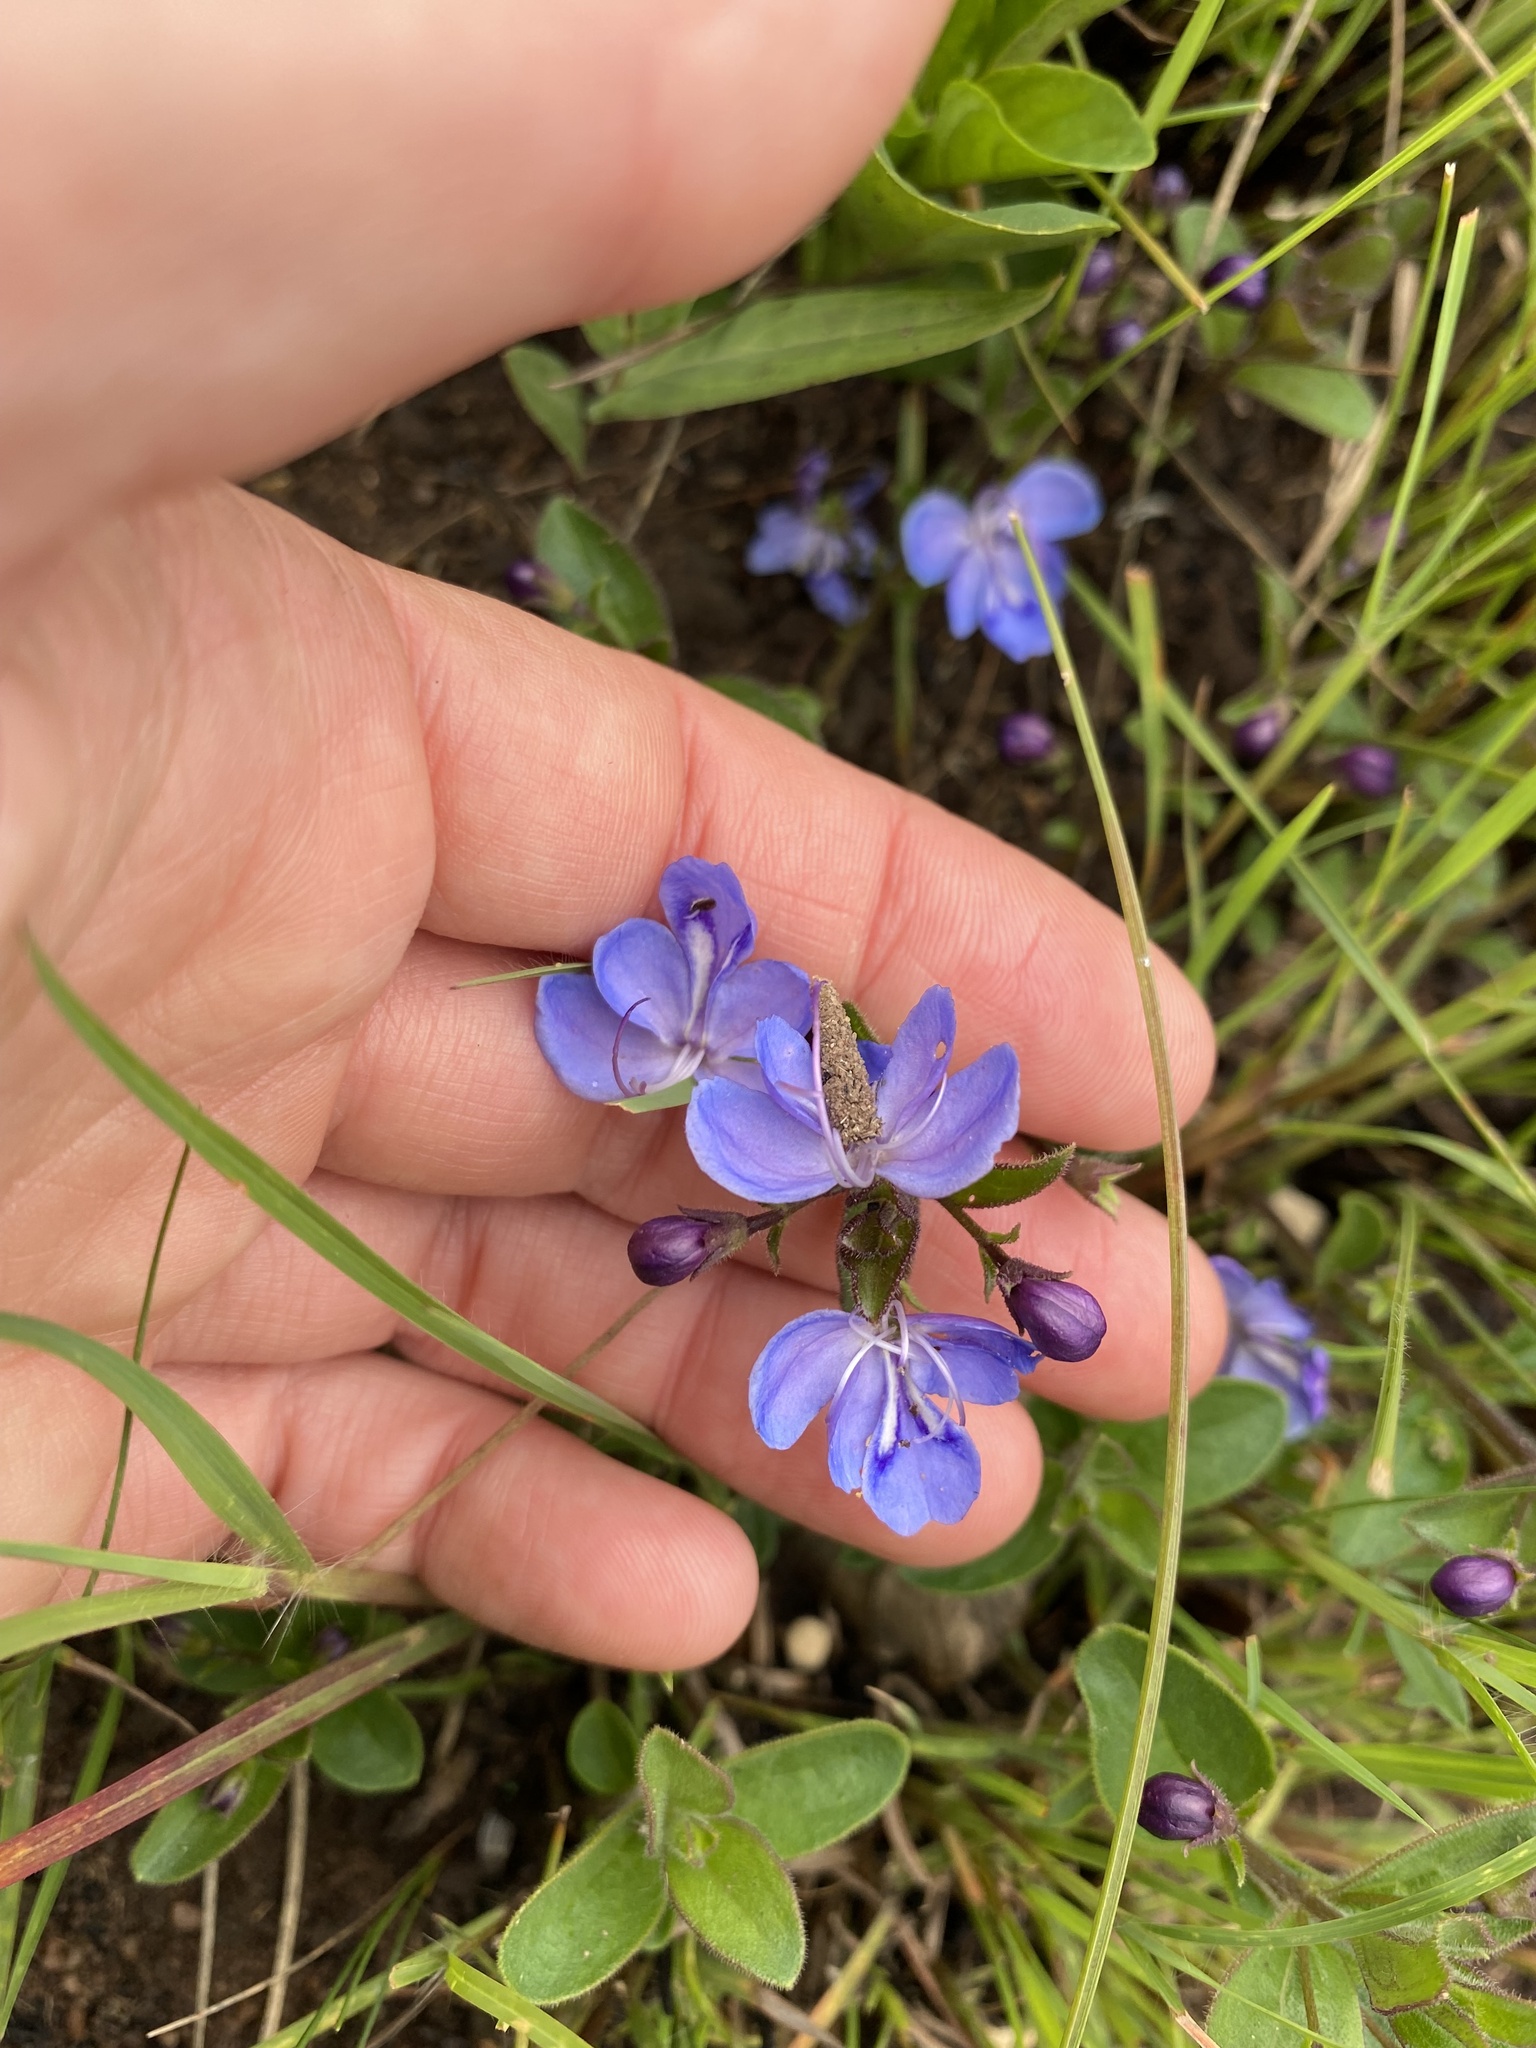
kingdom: Plantae
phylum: Tracheophyta
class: Magnoliopsida
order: Lamiales
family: Lamiaceae
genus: Rotheca
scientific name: Rotheca hirsuta
